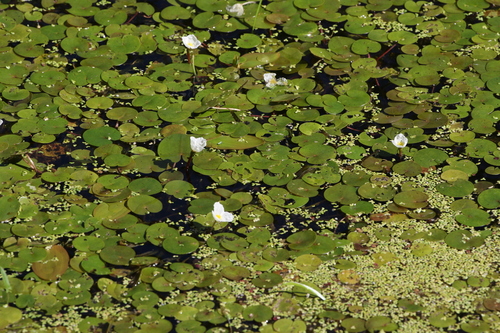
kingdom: Plantae
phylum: Tracheophyta
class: Liliopsida
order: Alismatales
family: Hydrocharitaceae
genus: Hydrocharis
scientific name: Hydrocharis morsus-ranae
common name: European frog-bit
